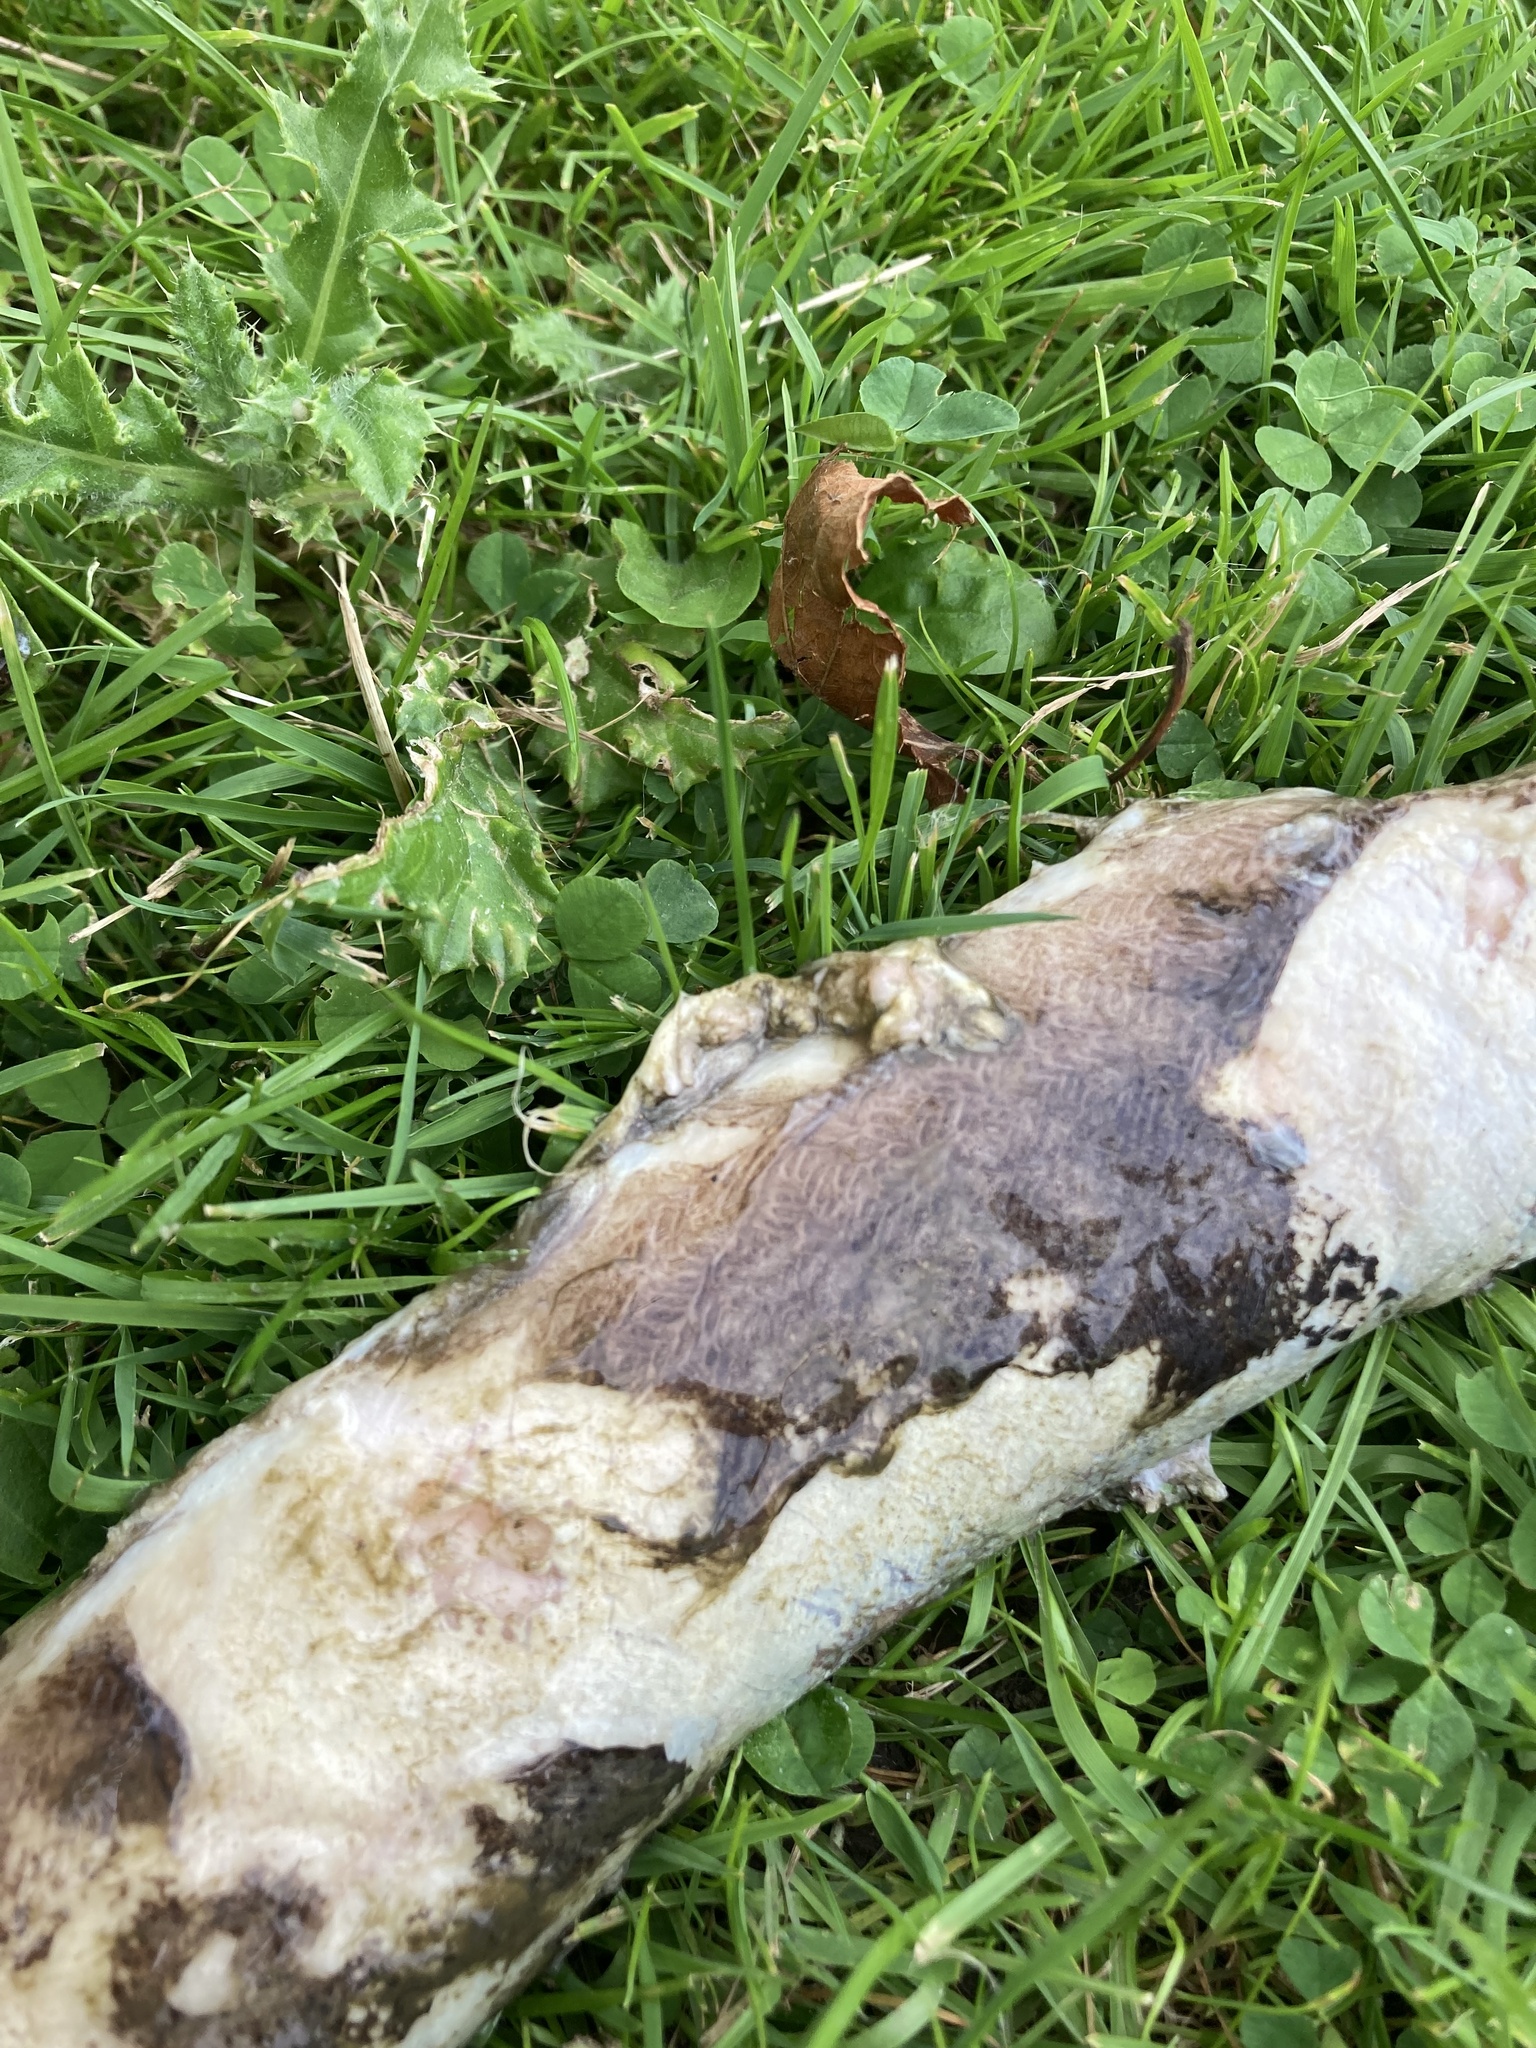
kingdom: Animalia
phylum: Chordata
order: Anguilliformes
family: Anguillidae
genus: Anguilla
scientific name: Anguilla anguilla
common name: European eel
